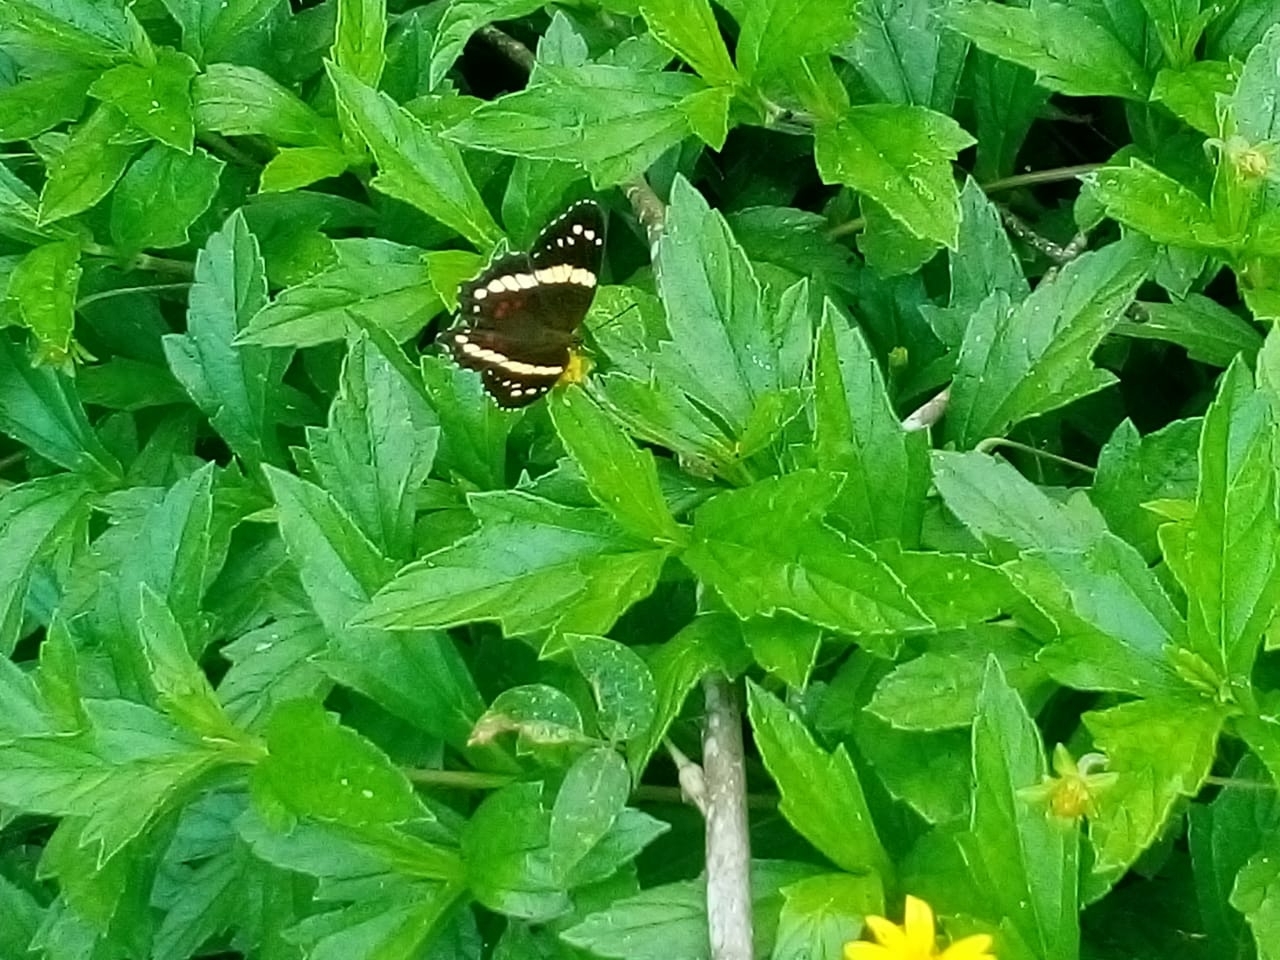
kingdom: Animalia
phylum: Arthropoda
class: Insecta
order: Lepidoptera
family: Nymphalidae
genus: Anartia
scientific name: Anartia fatima
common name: Banded peacock
